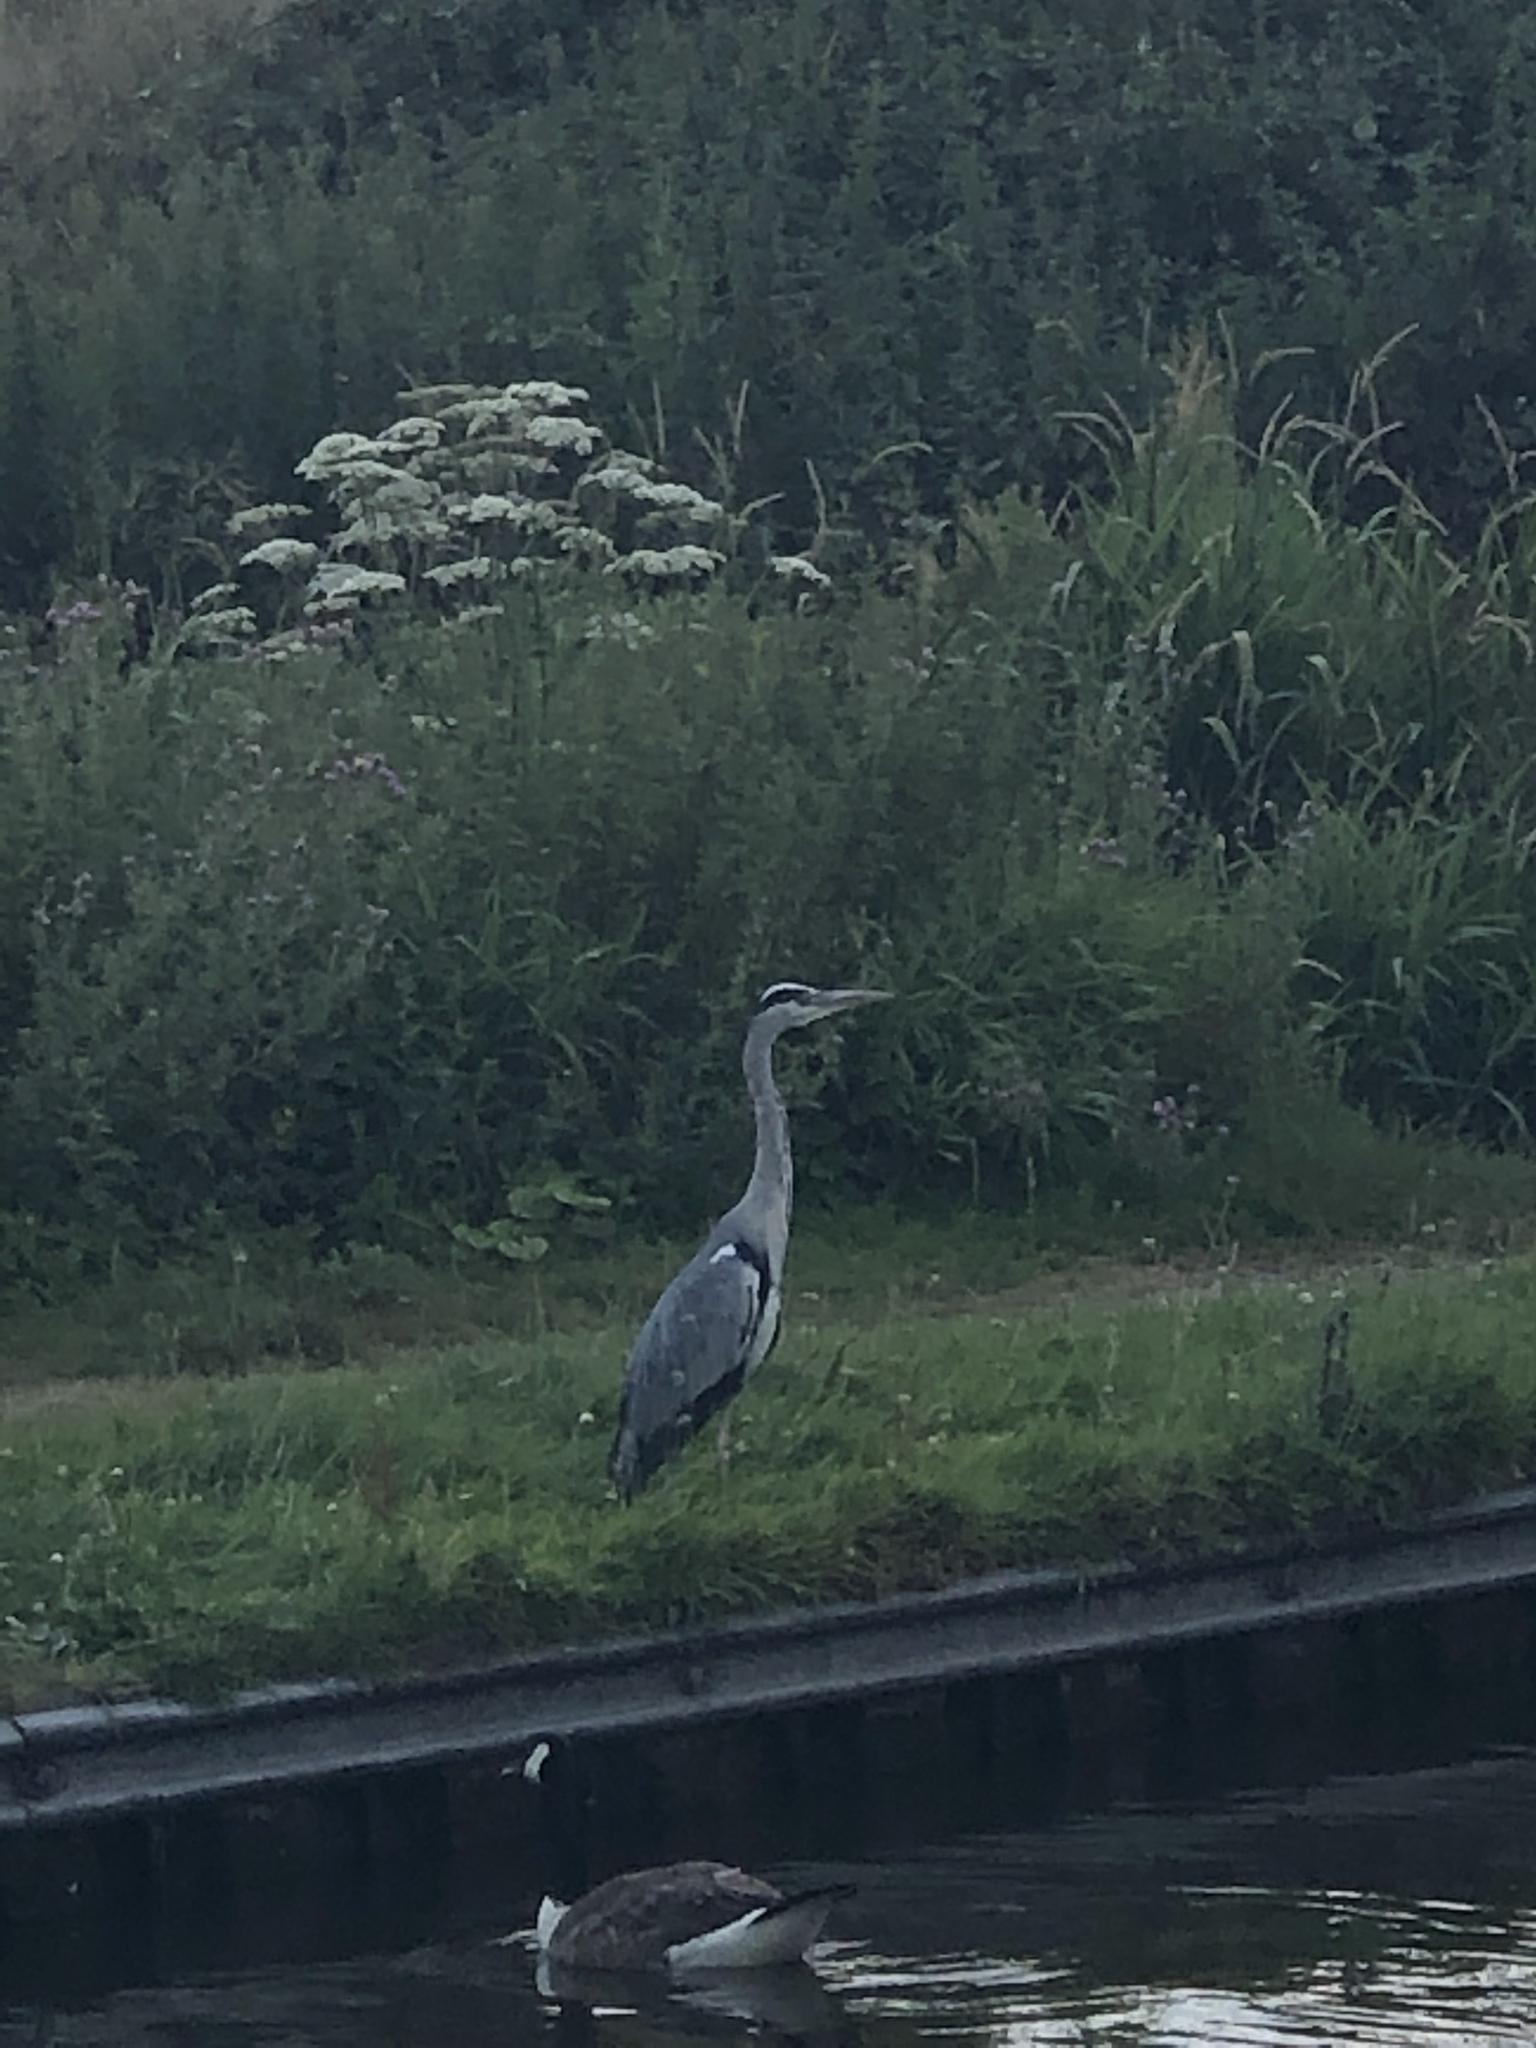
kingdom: Animalia
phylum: Chordata
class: Aves
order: Pelecaniformes
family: Ardeidae
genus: Ardea
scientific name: Ardea cinerea
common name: Grey heron
